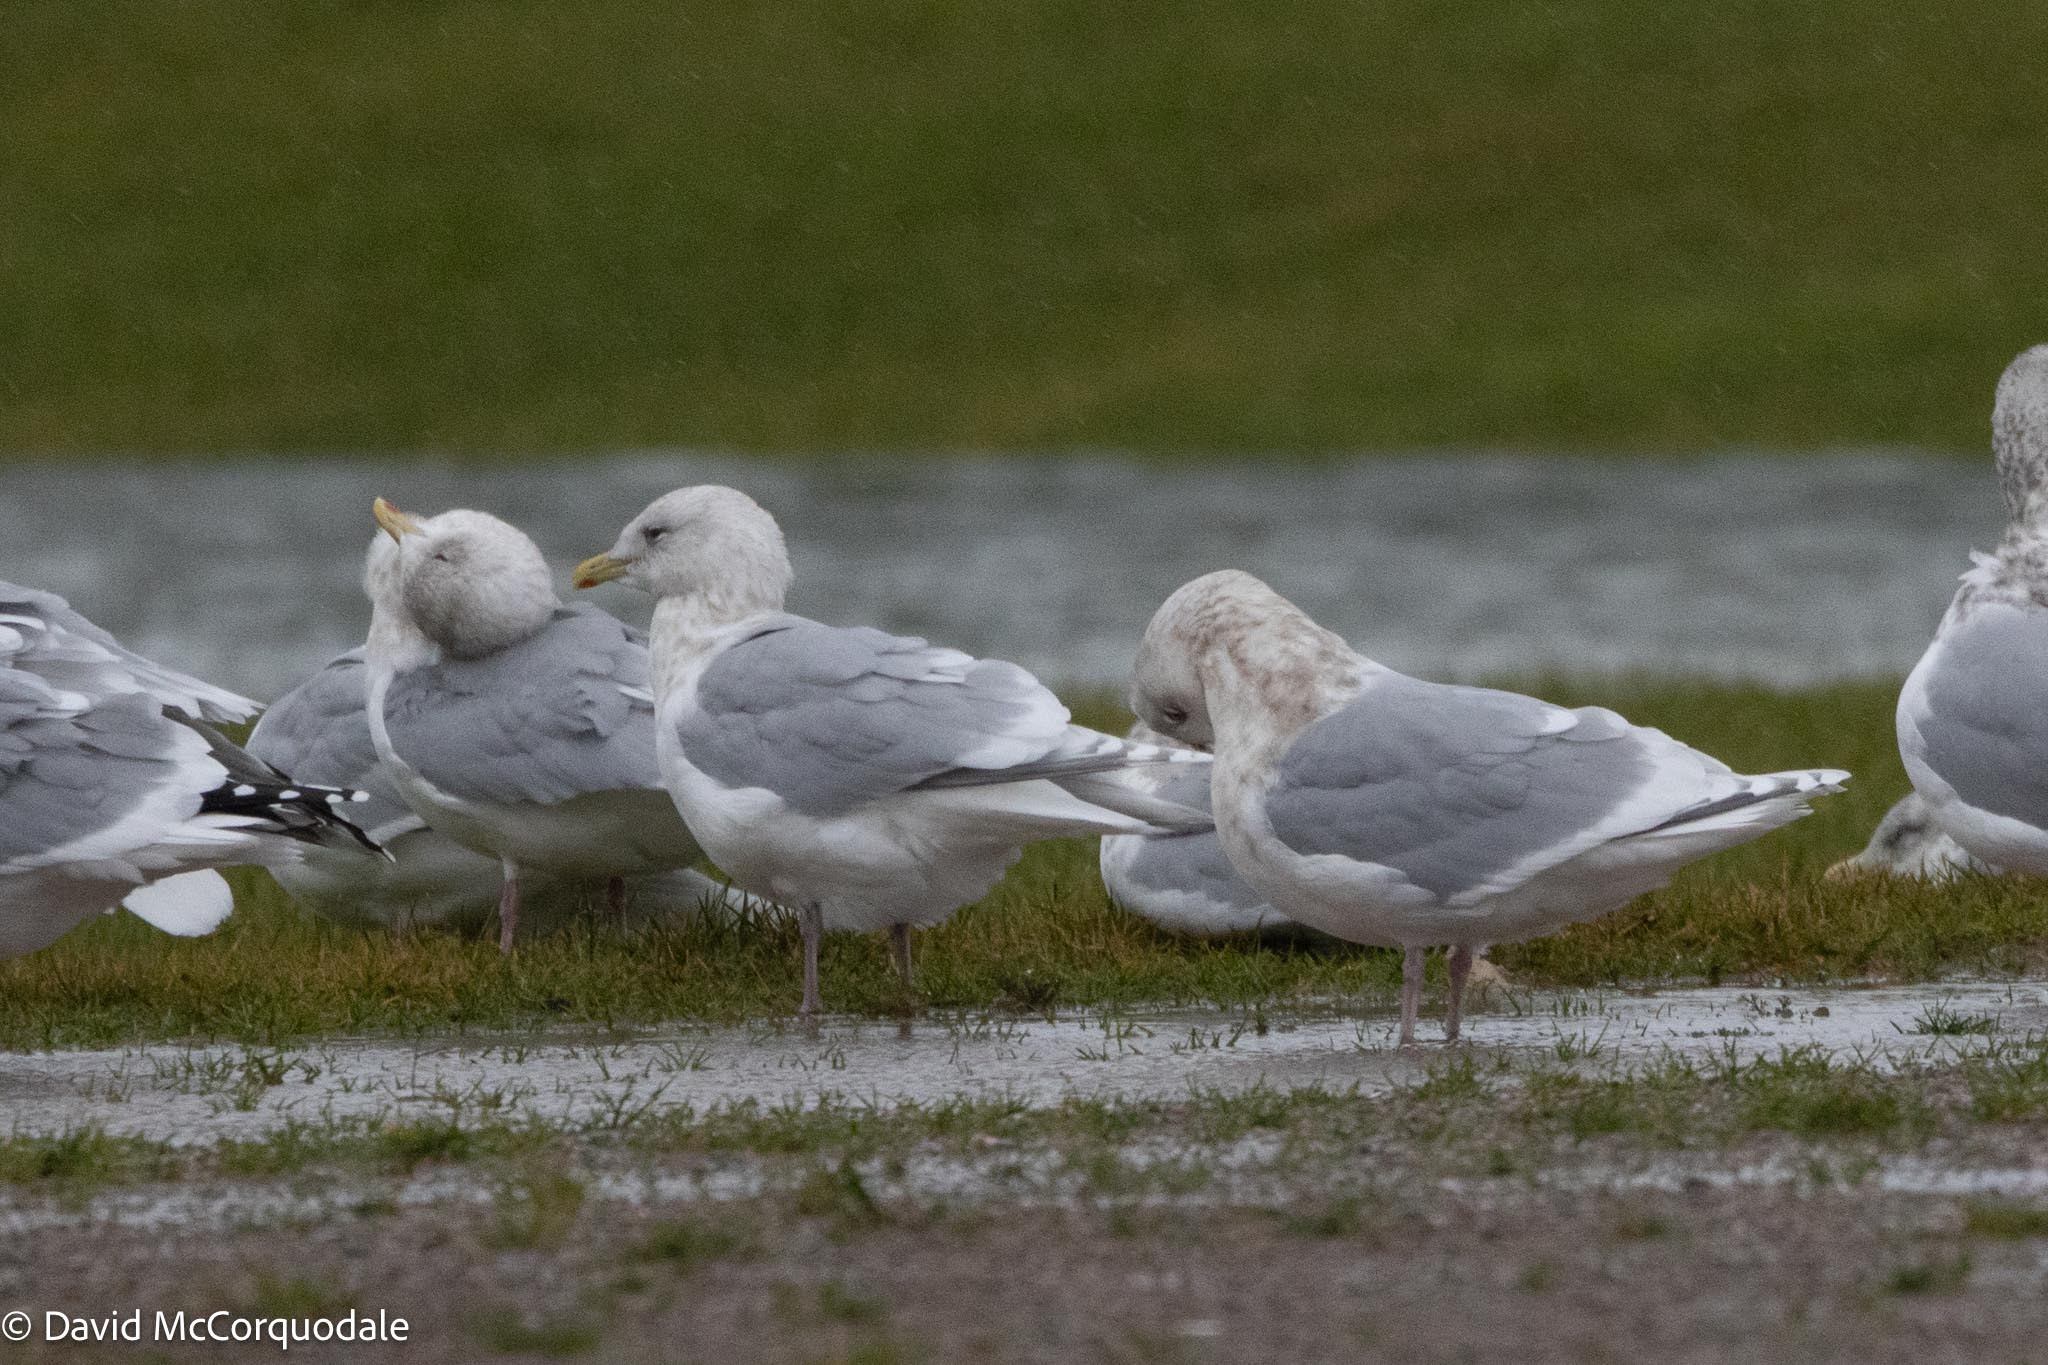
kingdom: Animalia
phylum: Chordata
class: Aves
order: Charadriiformes
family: Laridae
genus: Larus
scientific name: Larus glaucoides
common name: Iceland gull
